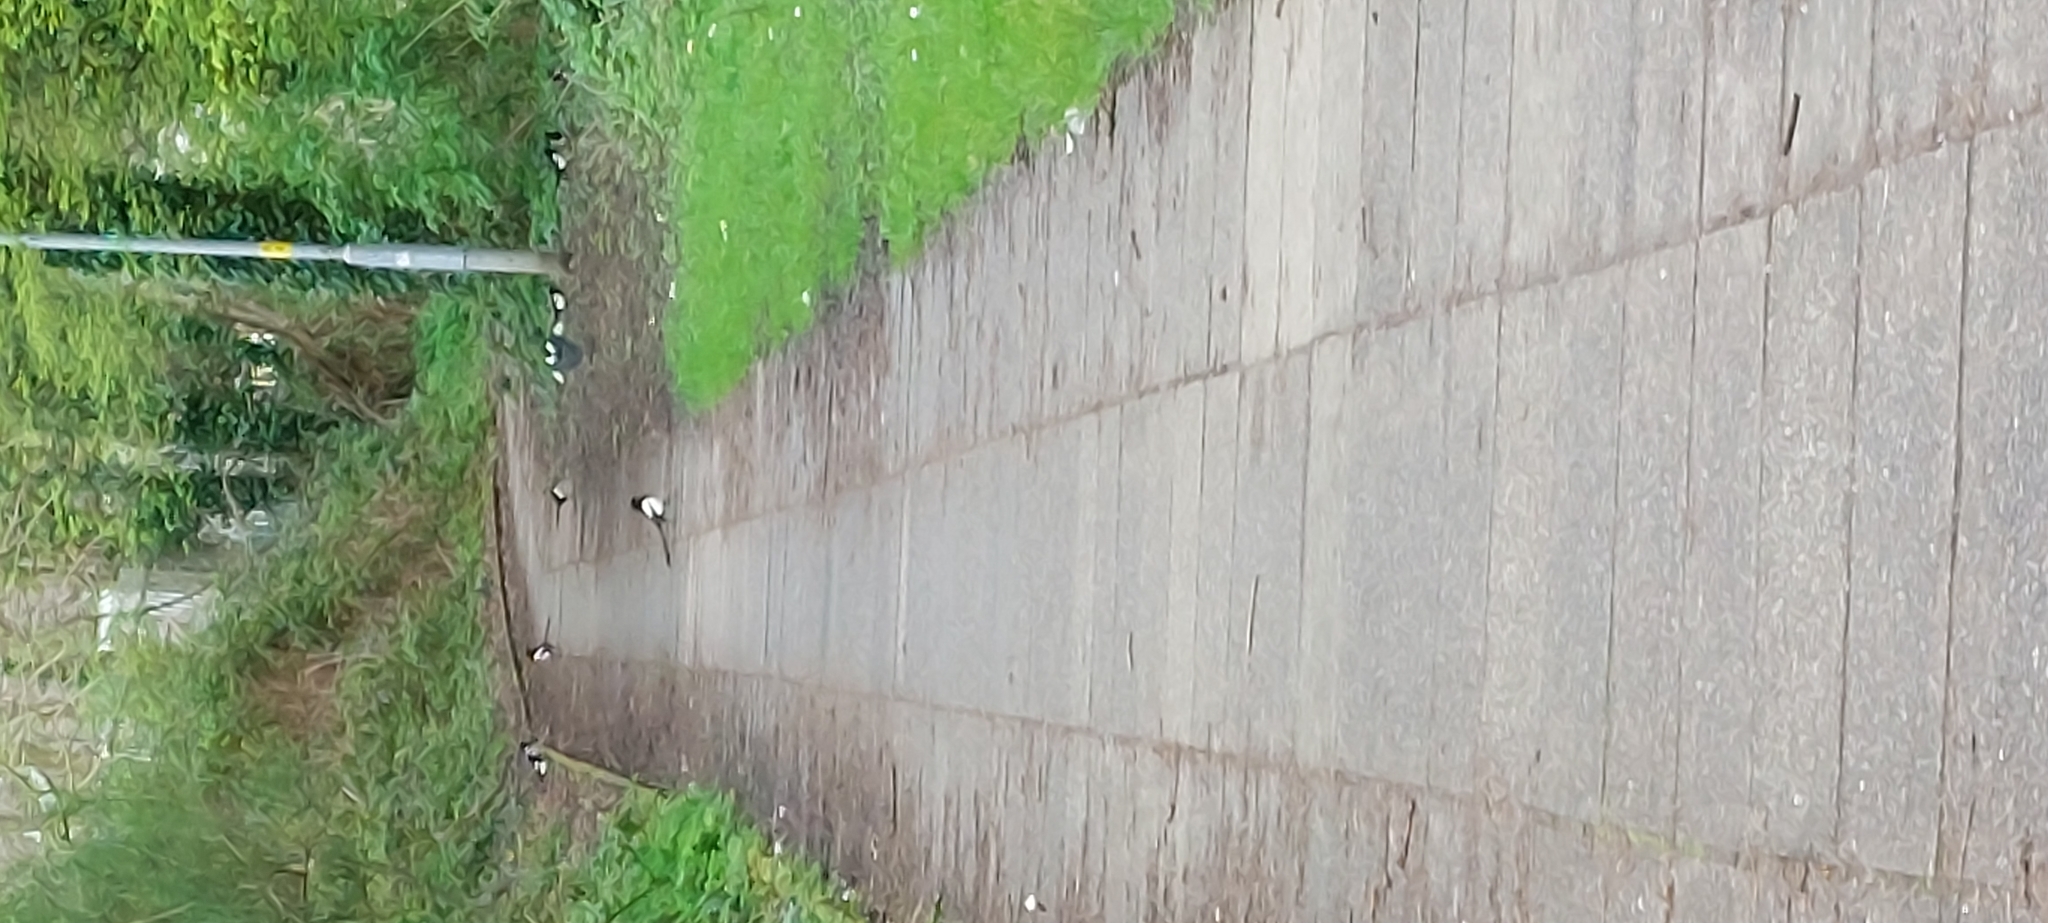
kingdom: Animalia
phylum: Chordata
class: Aves
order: Passeriformes
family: Corvidae
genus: Pica
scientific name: Pica pica
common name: Eurasian magpie
